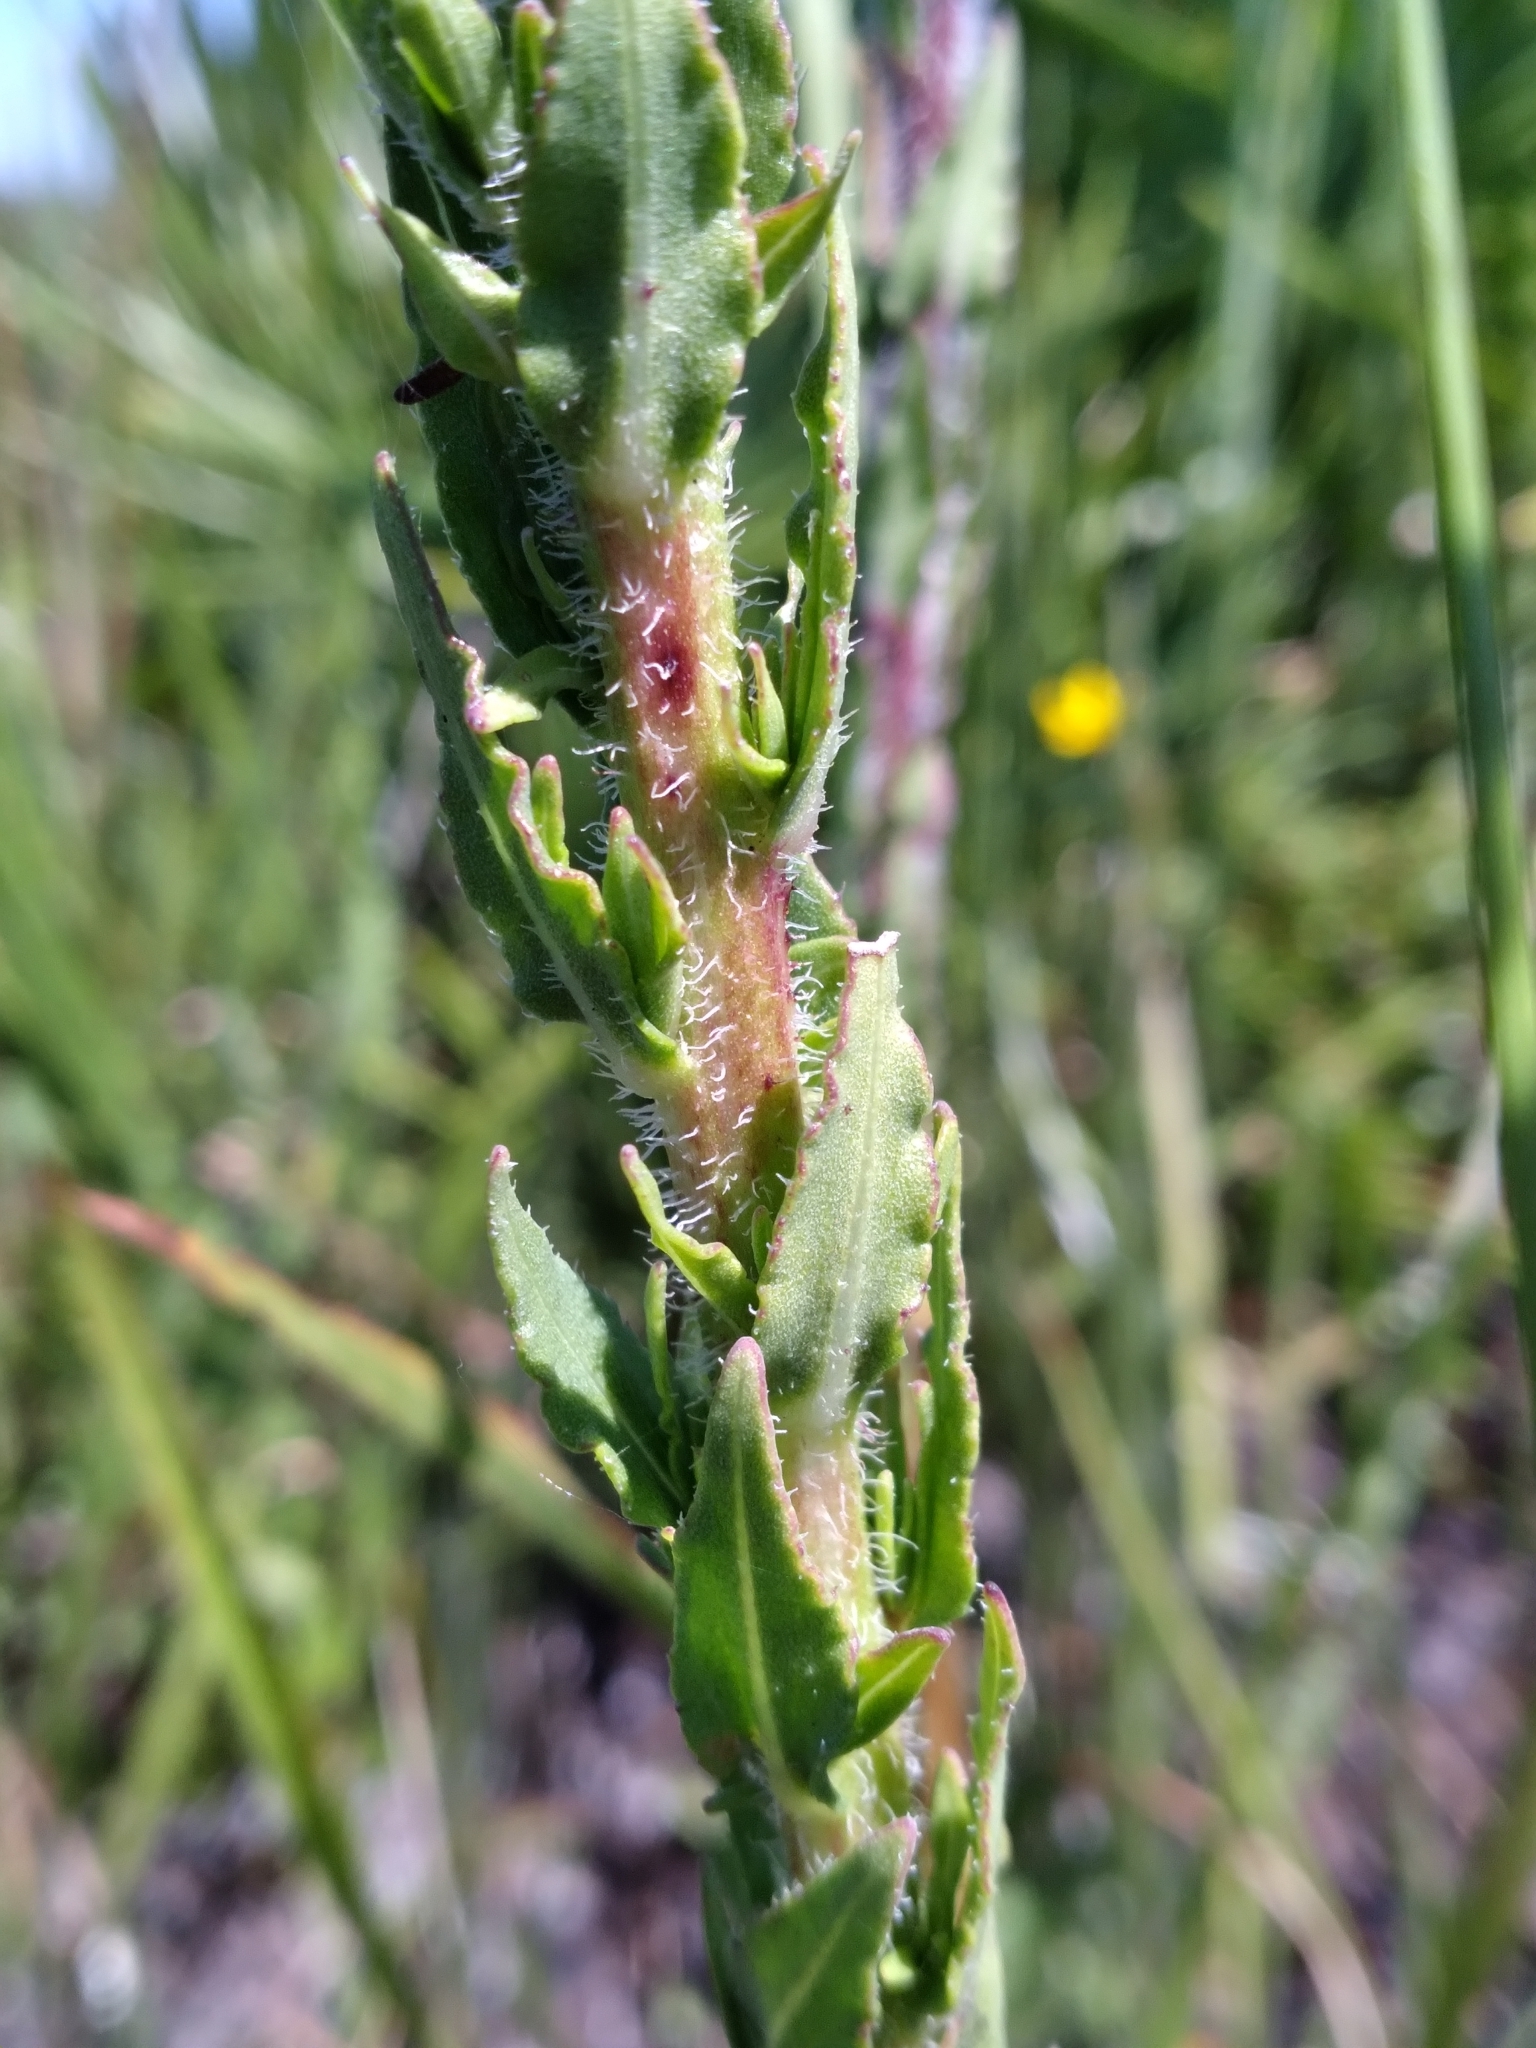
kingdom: Plantae
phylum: Tracheophyta
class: Magnoliopsida
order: Asterales
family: Asteraceae
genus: Carphephorus
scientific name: Carphephorus paniculatus
